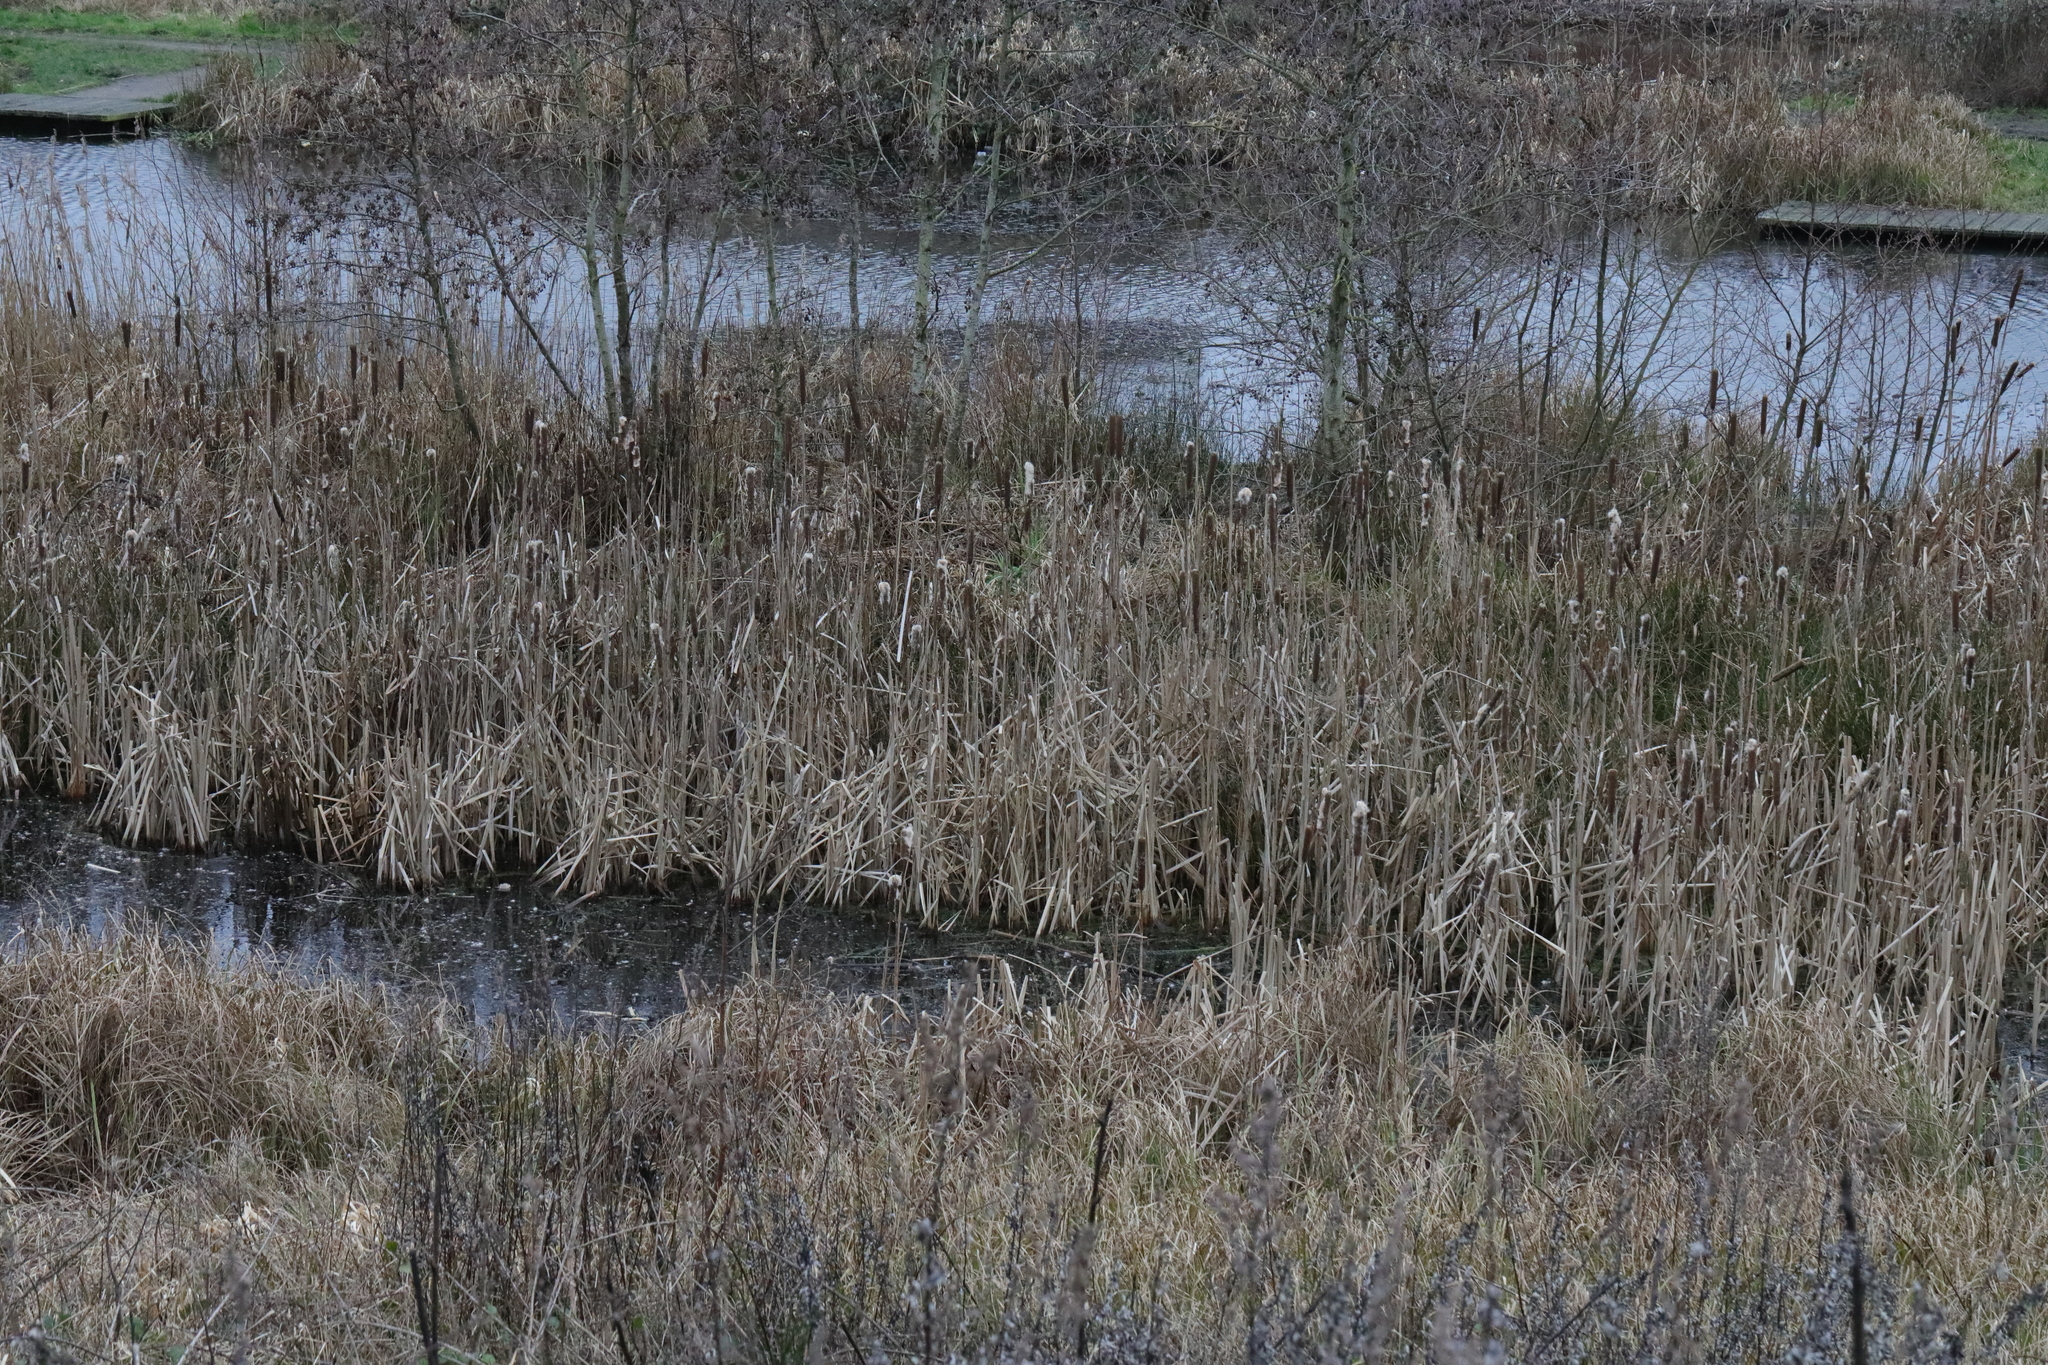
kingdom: Plantae
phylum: Tracheophyta
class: Liliopsida
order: Poales
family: Typhaceae
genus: Typha
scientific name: Typha latifolia
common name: Broadleaf cattail
